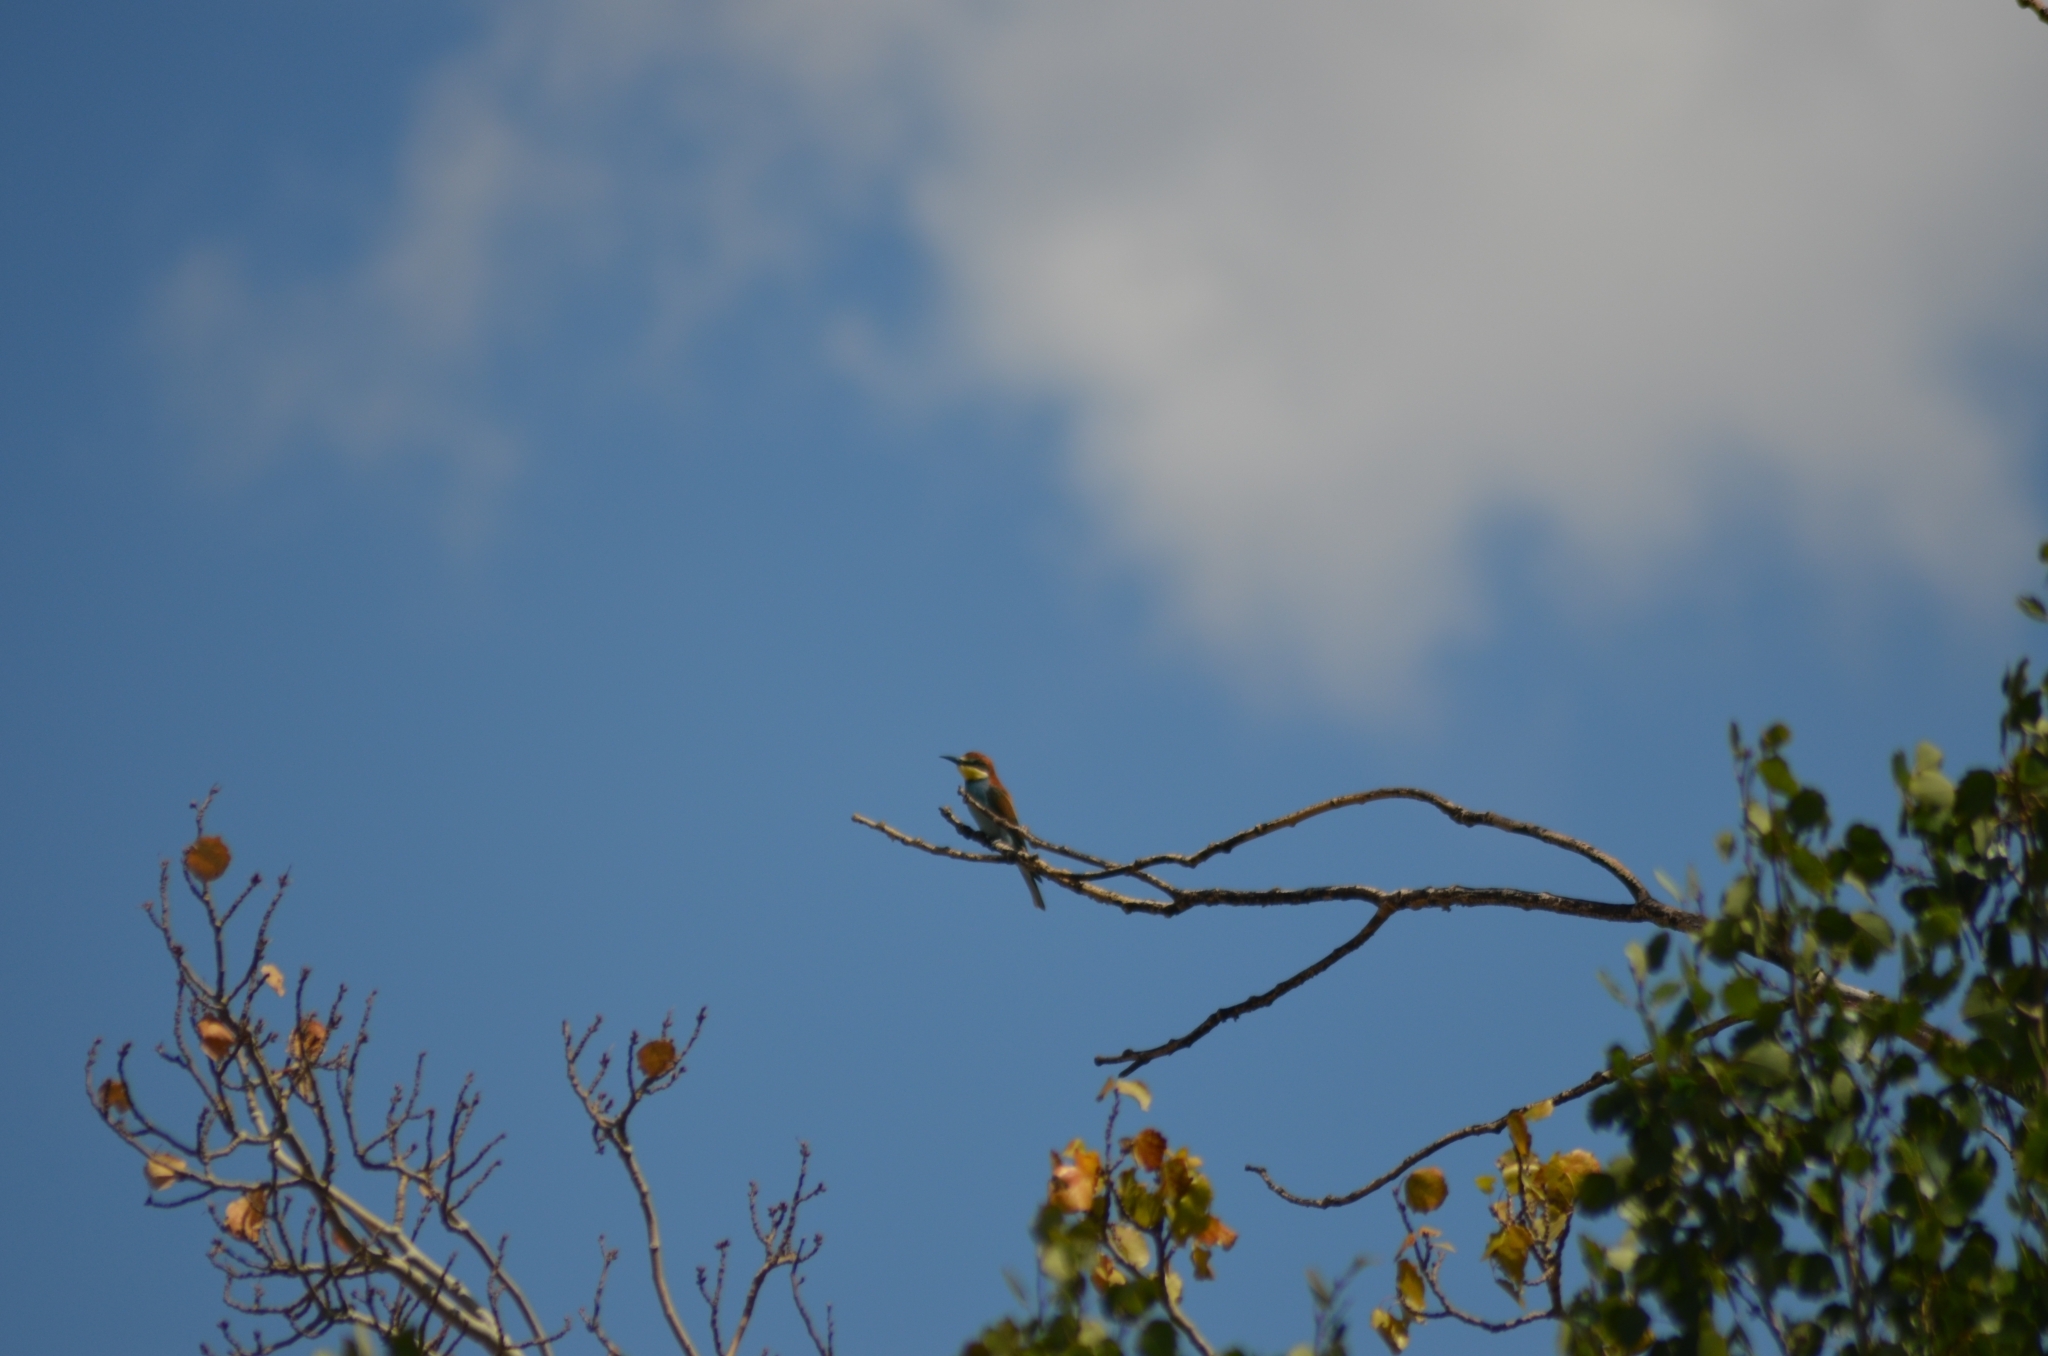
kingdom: Animalia
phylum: Chordata
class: Aves
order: Coraciiformes
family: Meropidae
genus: Merops
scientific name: Merops apiaster
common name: European bee-eater
